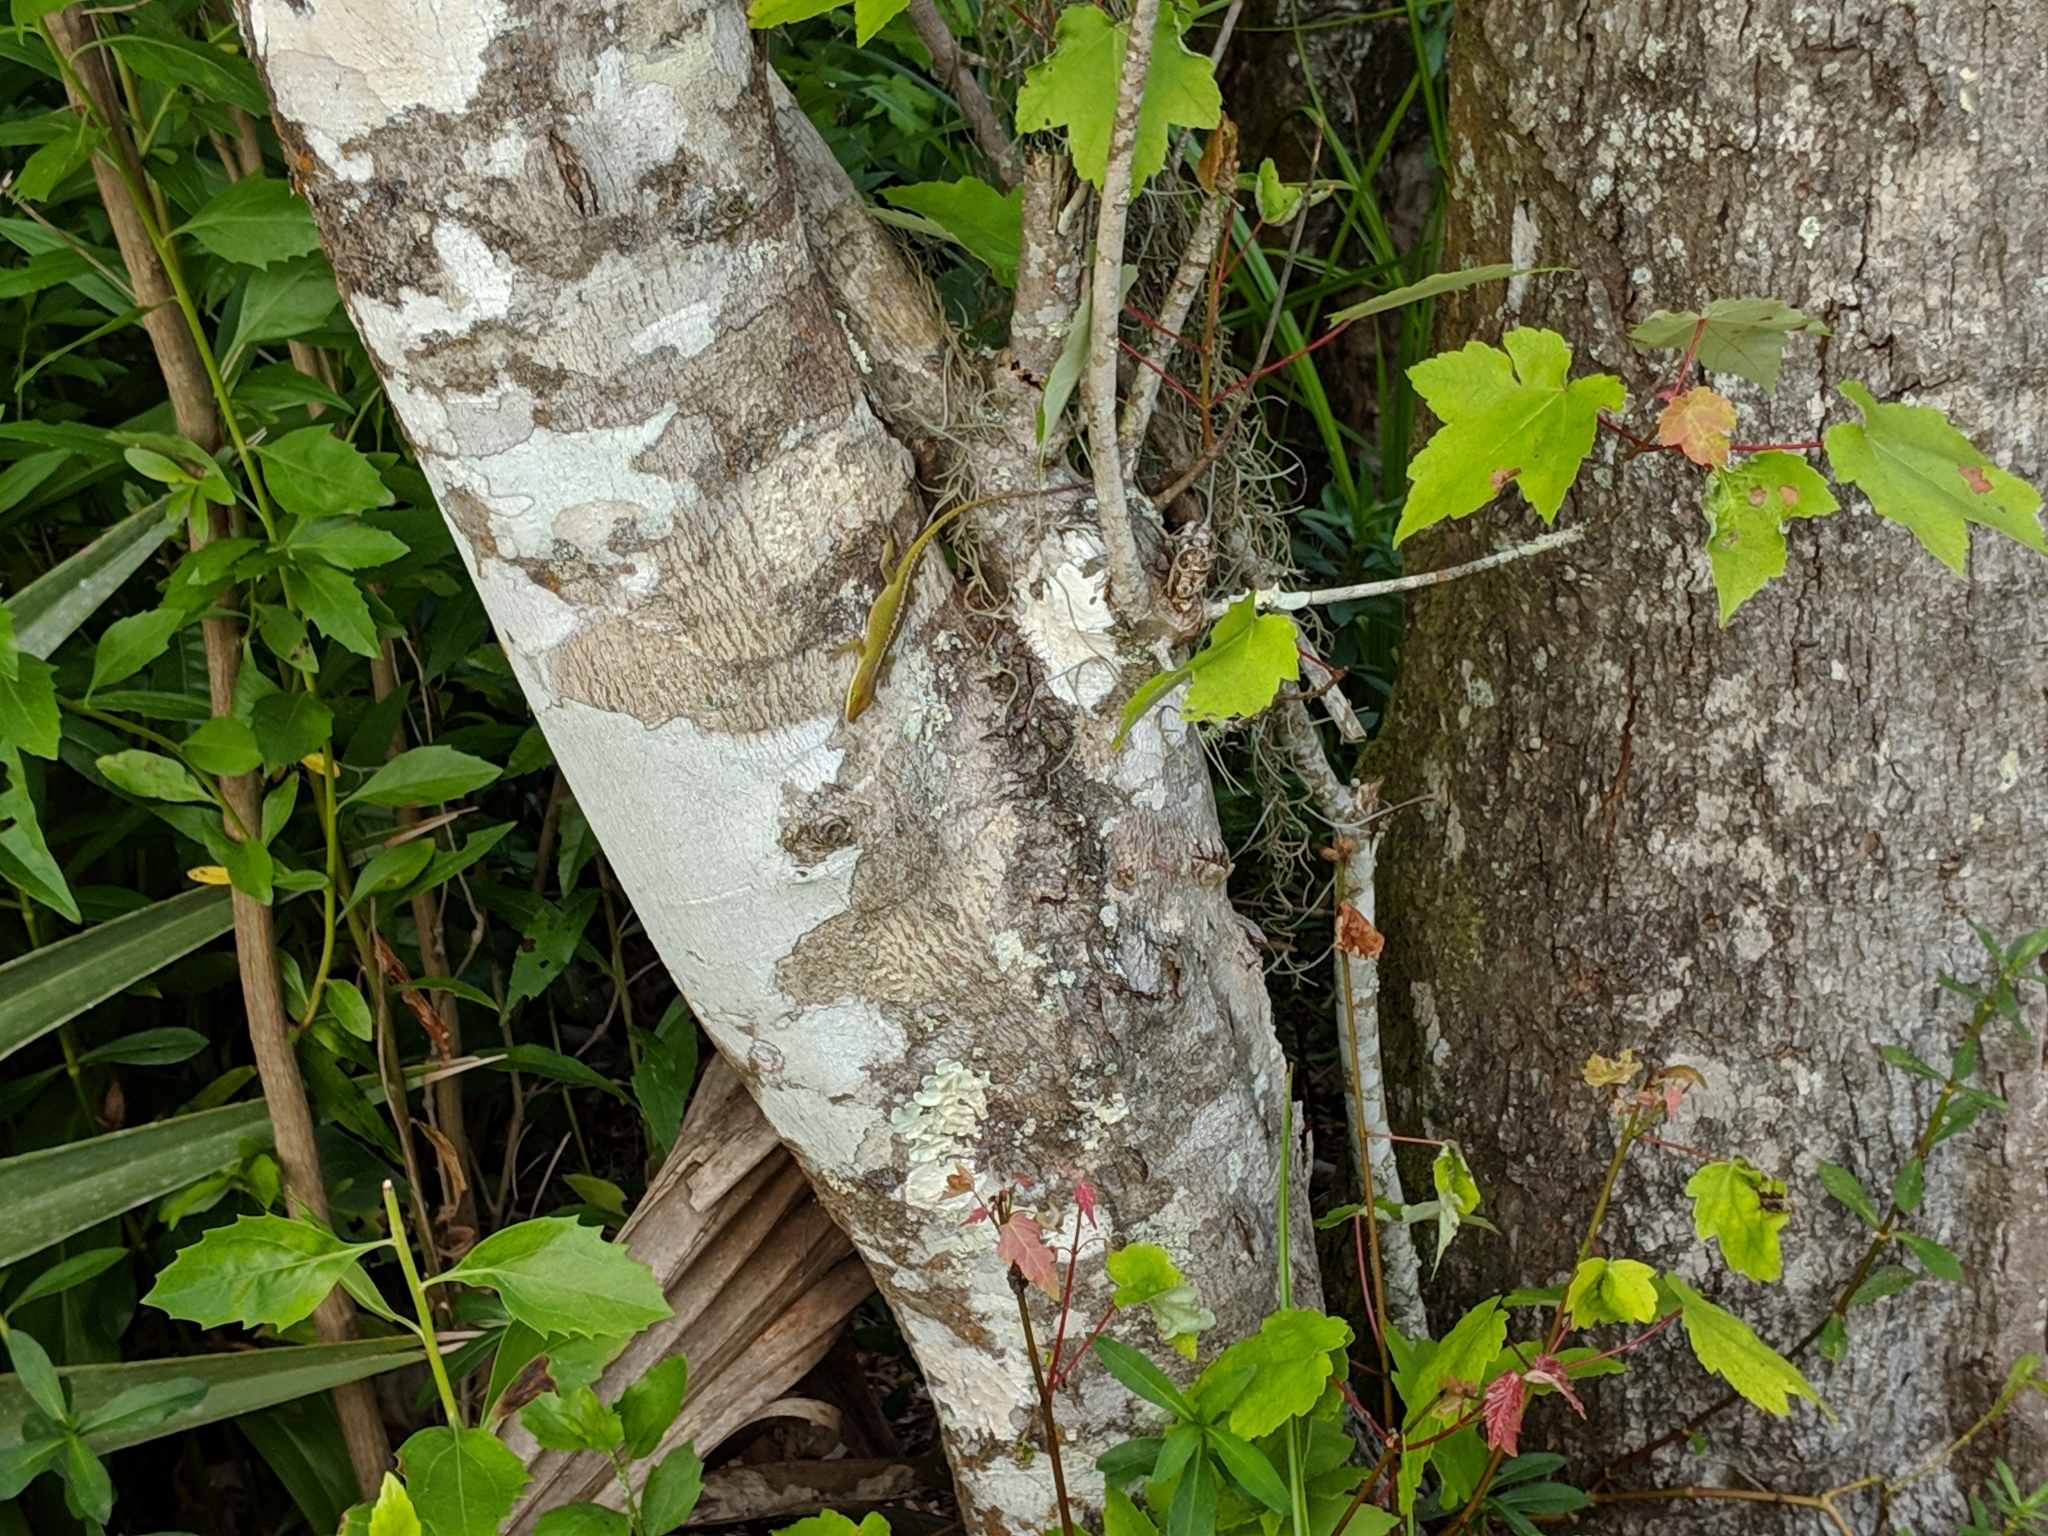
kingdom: Animalia
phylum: Chordata
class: Squamata
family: Dactyloidae
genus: Anolis
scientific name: Anolis carolinensis
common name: Green anole
